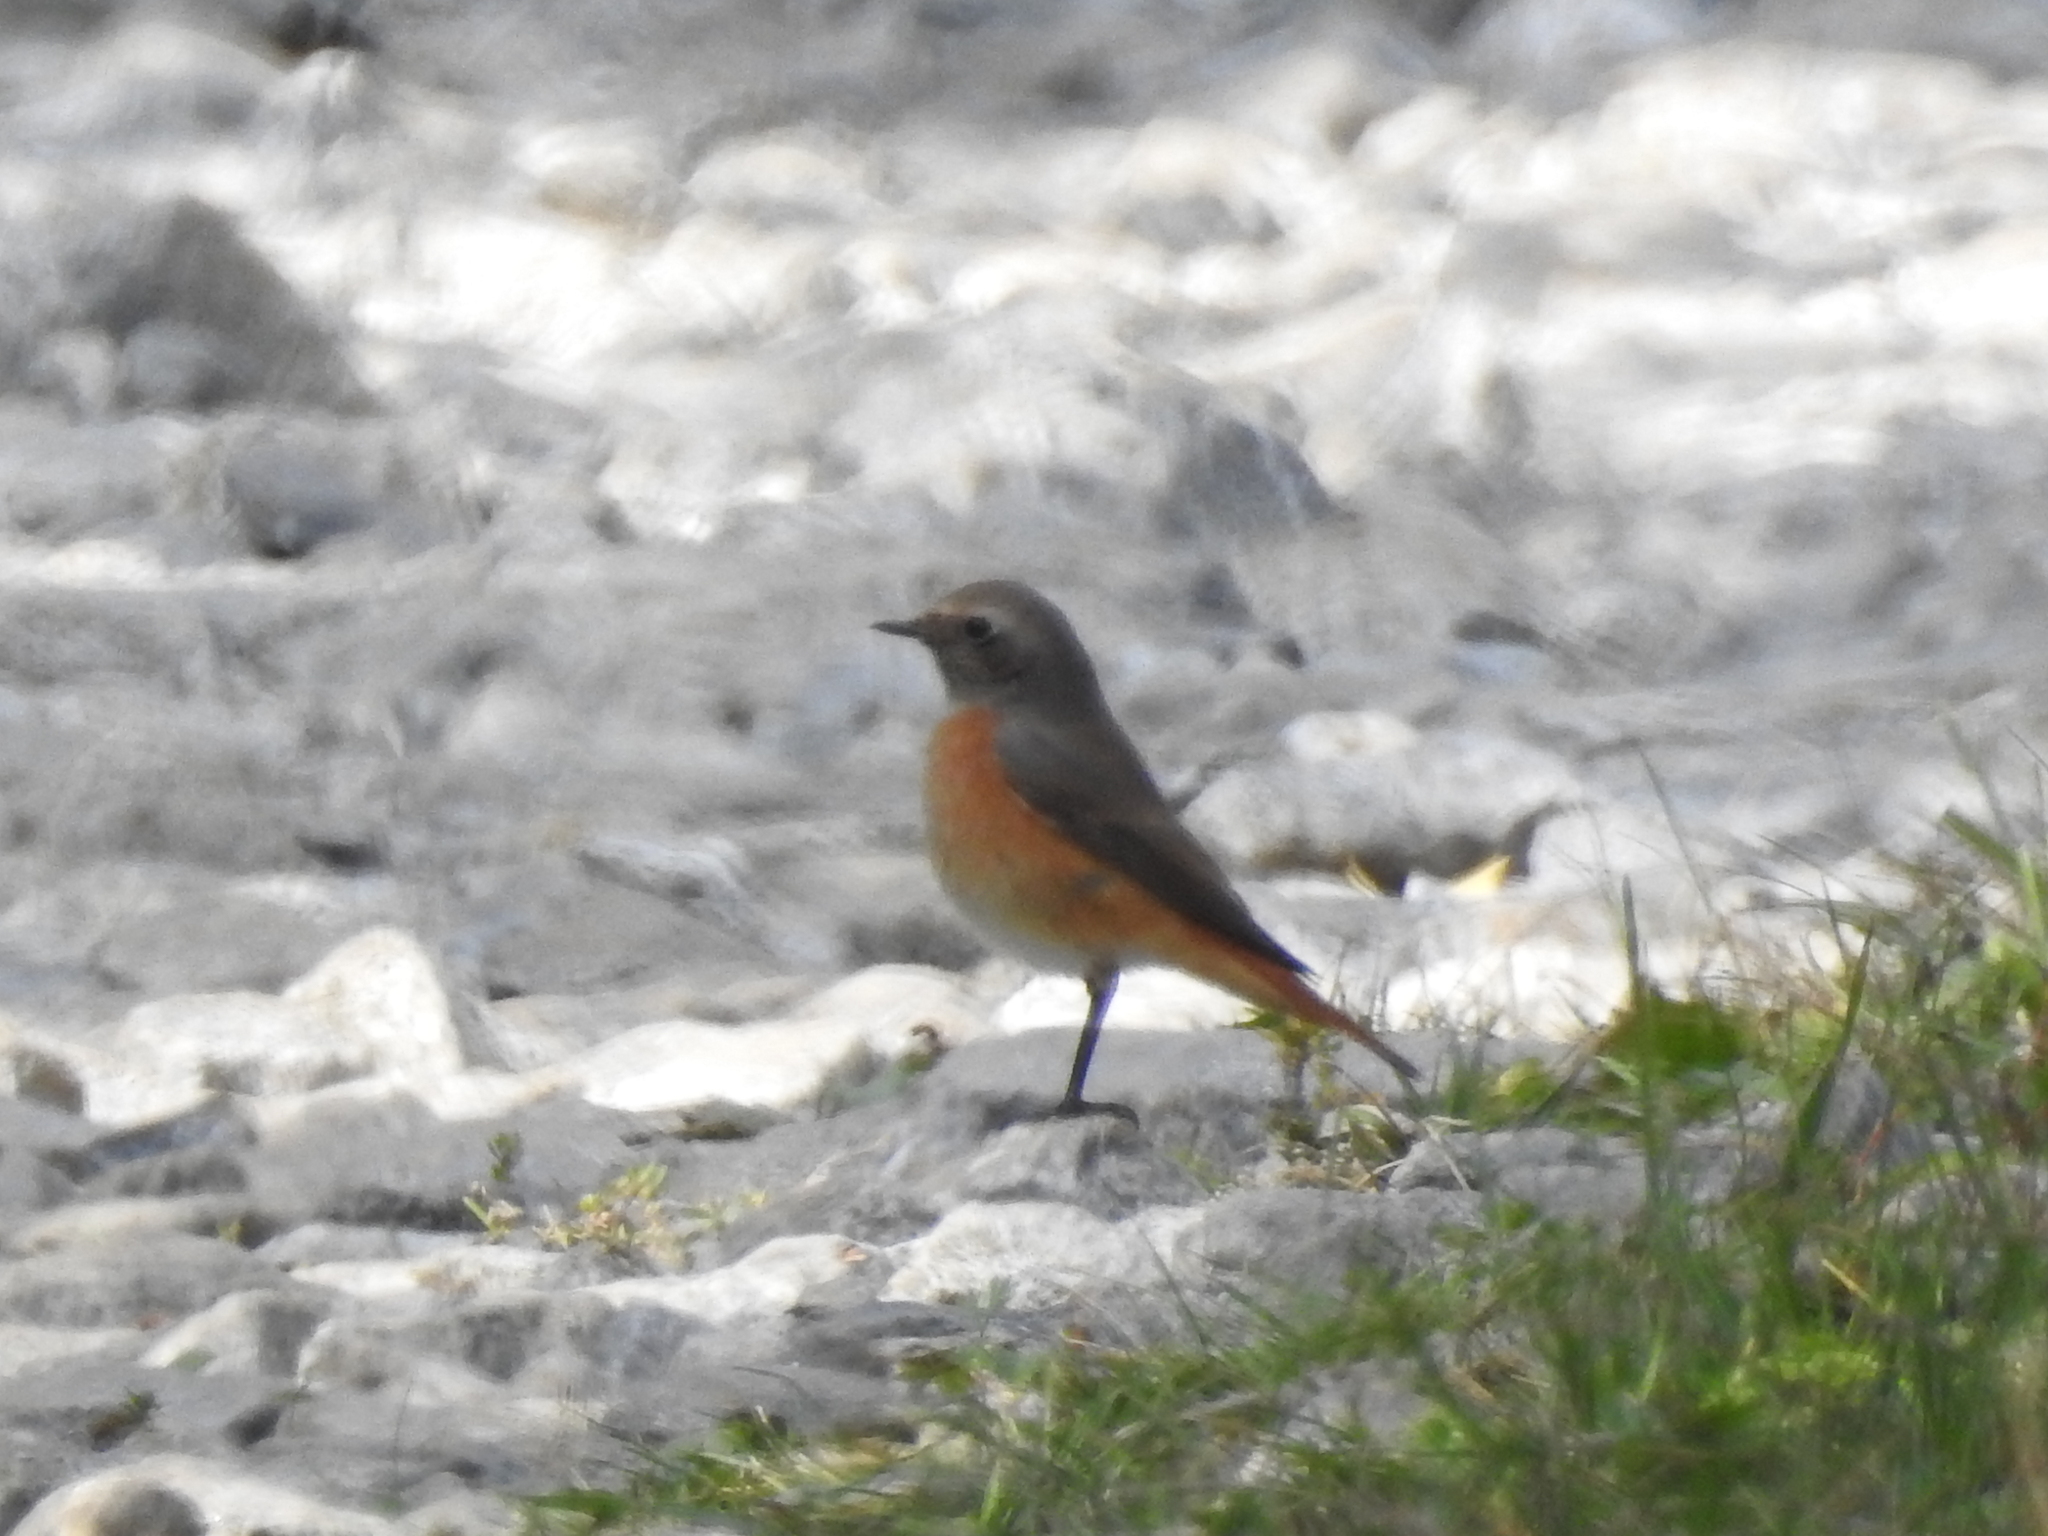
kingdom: Animalia
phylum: Chordata
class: Aves
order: Passeriformes
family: Muscicapidae
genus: Phoenicurus
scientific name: Phoenicurus phoenicurus
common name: Common redstart
